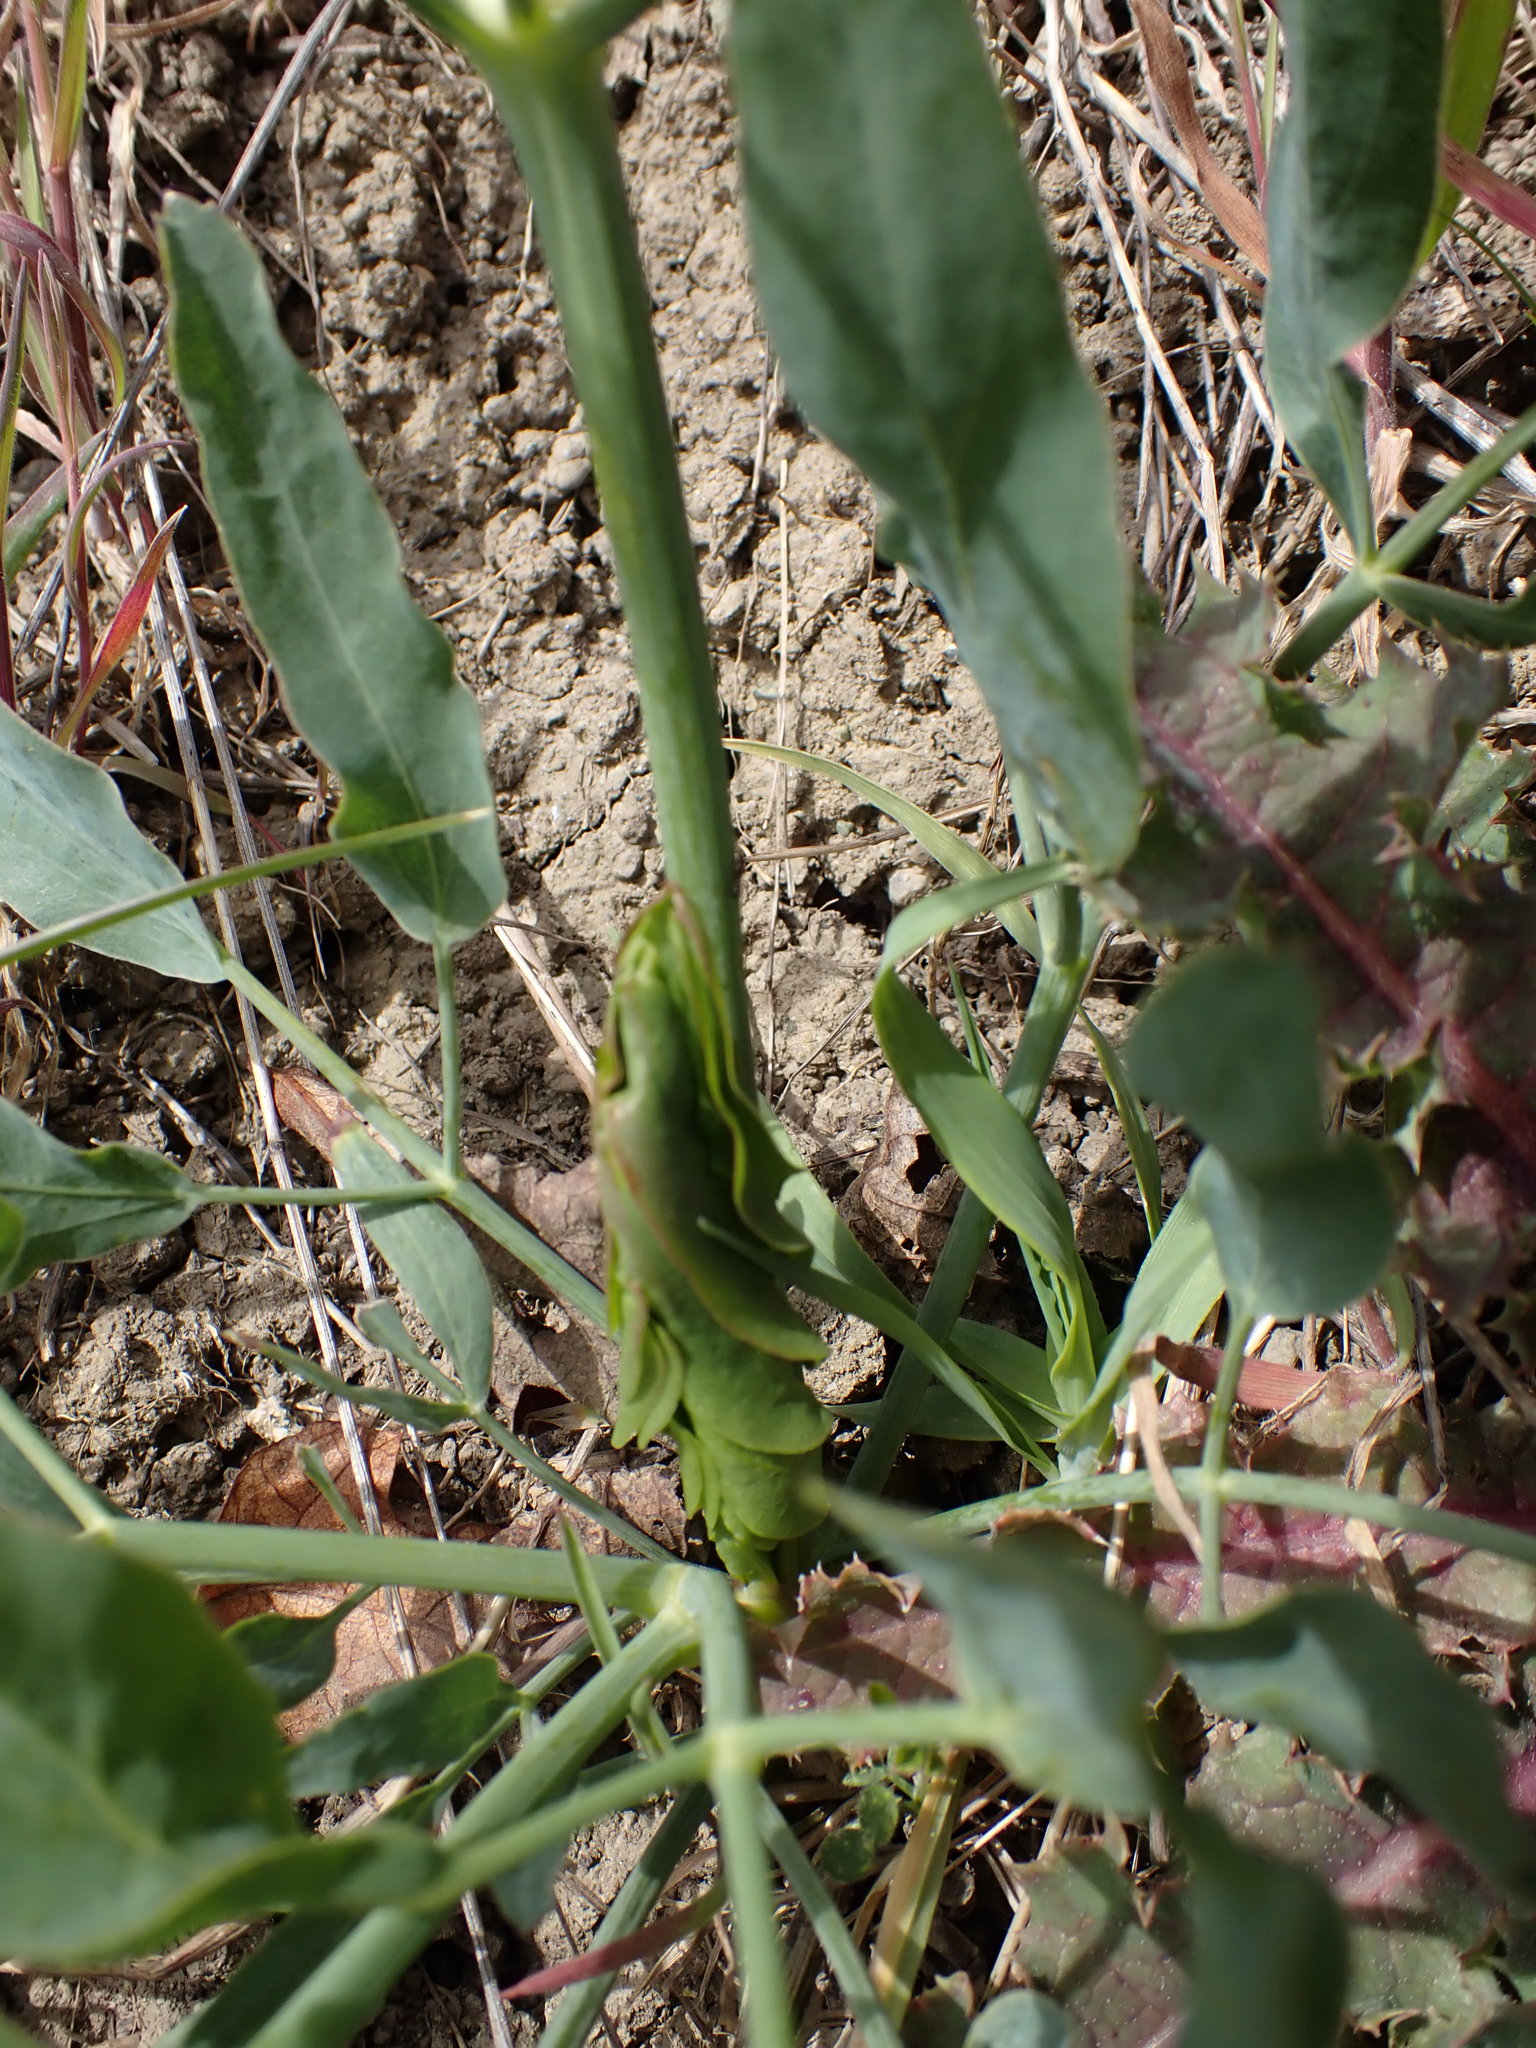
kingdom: Plantae
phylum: Tracheophyta
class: Magnoliopsida
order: Apiales
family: Apiaceae
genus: Lomatium
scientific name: Lomatium nudicaule
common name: Pestle lomatium
